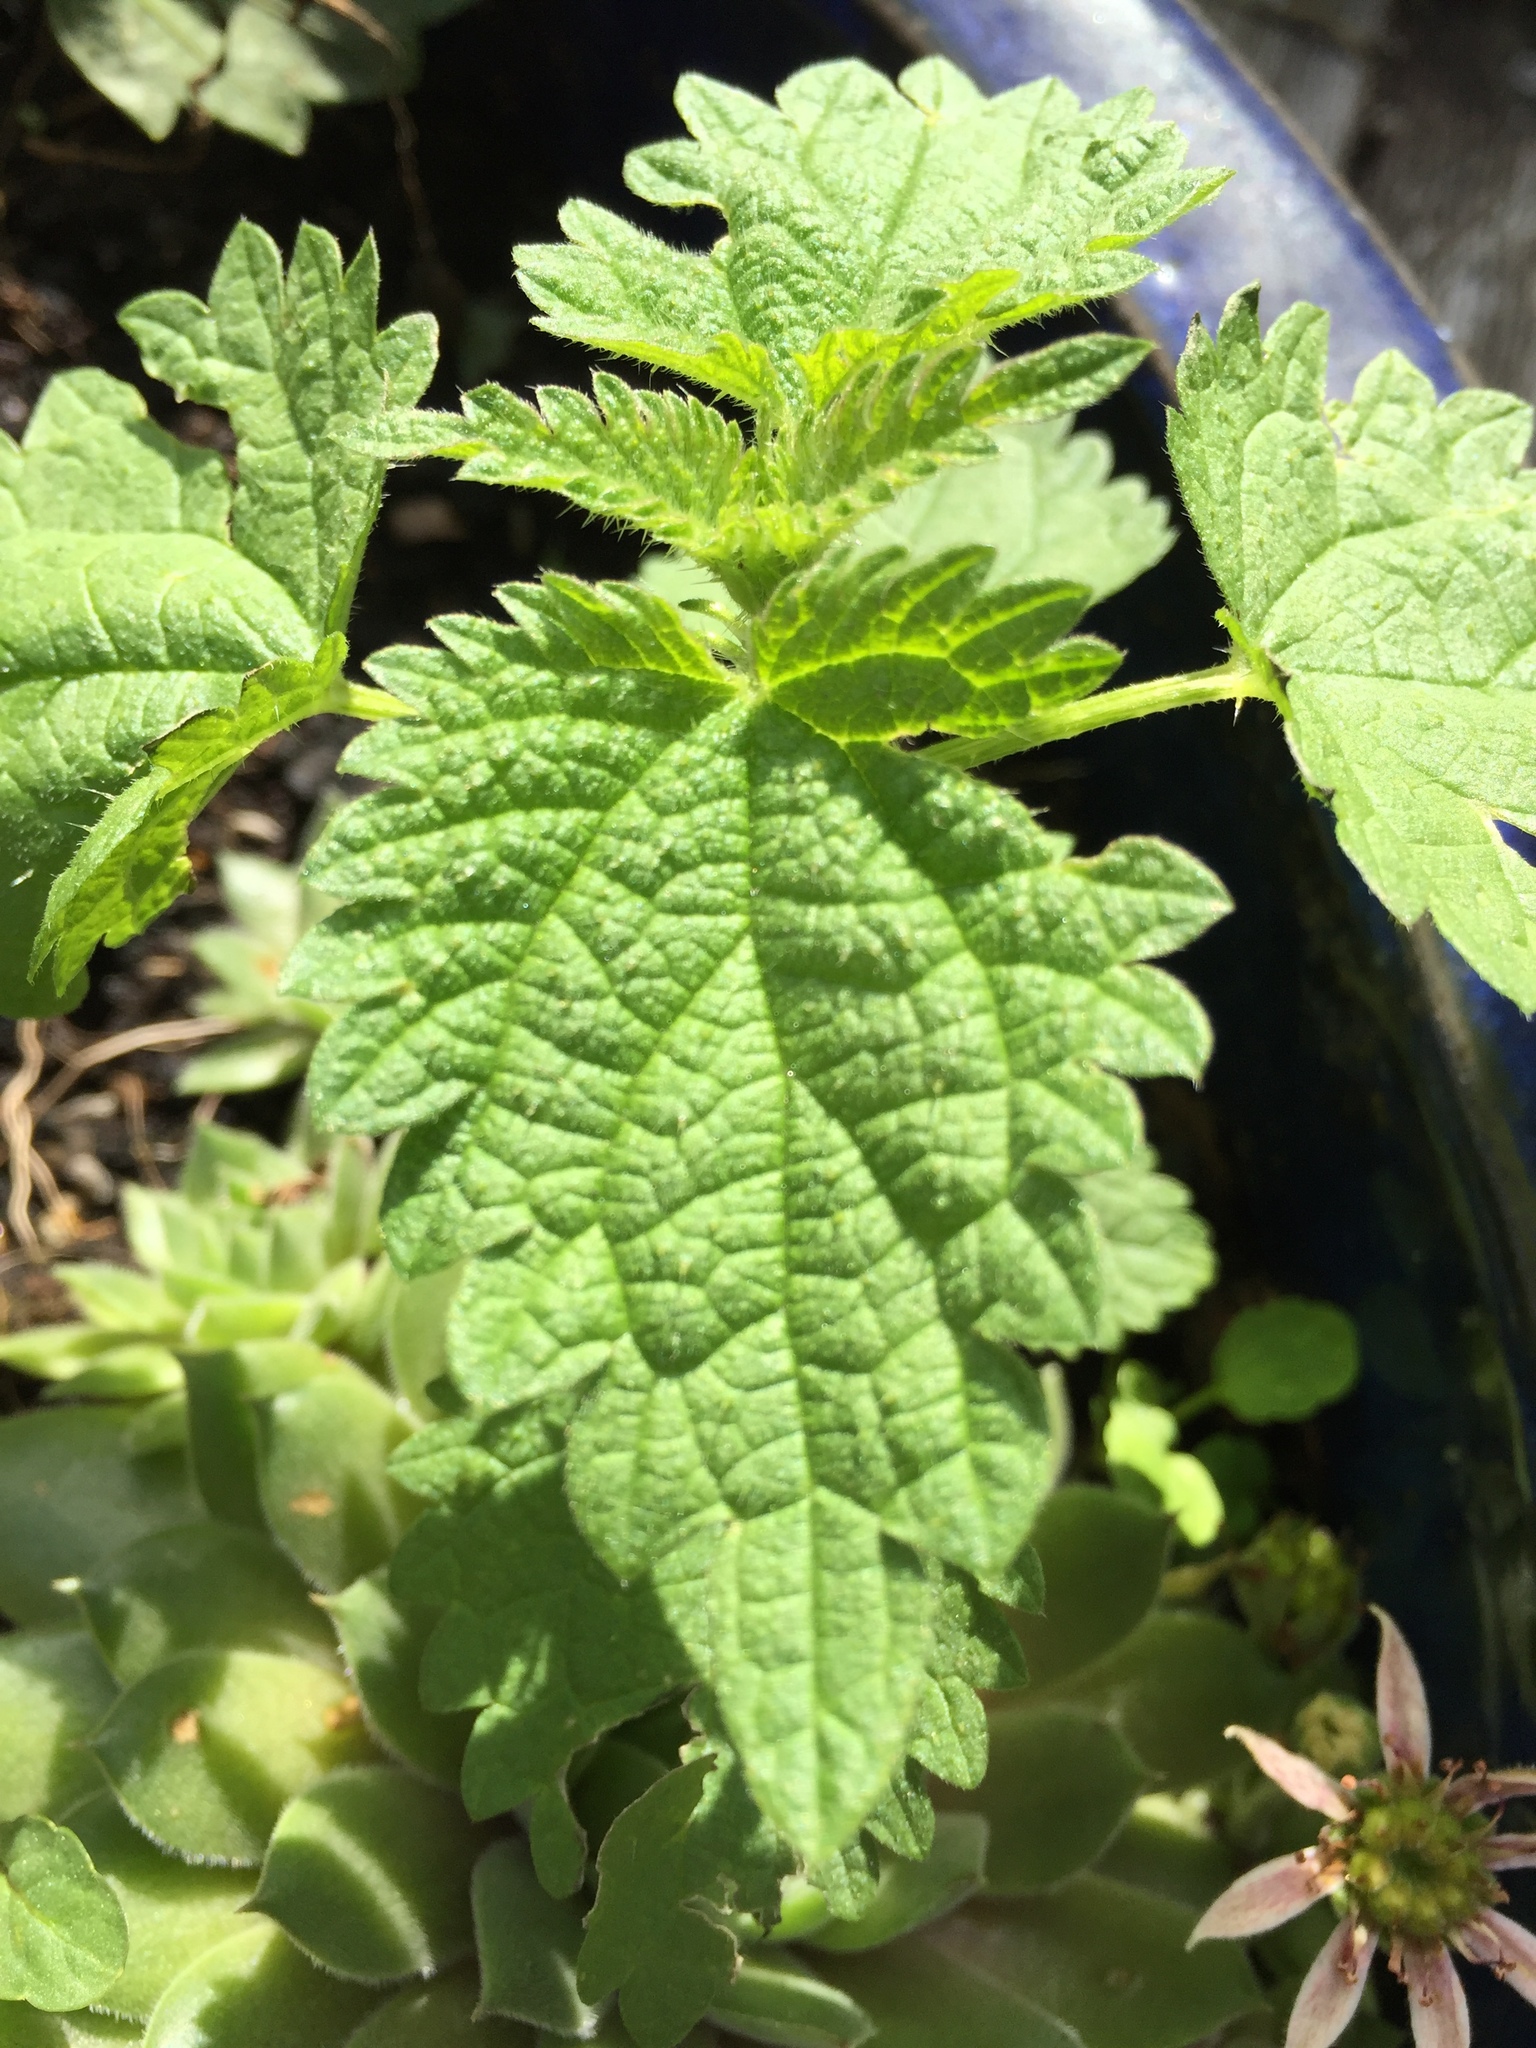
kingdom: Plantae
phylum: Tracheophyta
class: Magnoliopsida
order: Rosales
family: Urticaceae
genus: Urtica
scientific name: Urtica dioica
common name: Common nettle
